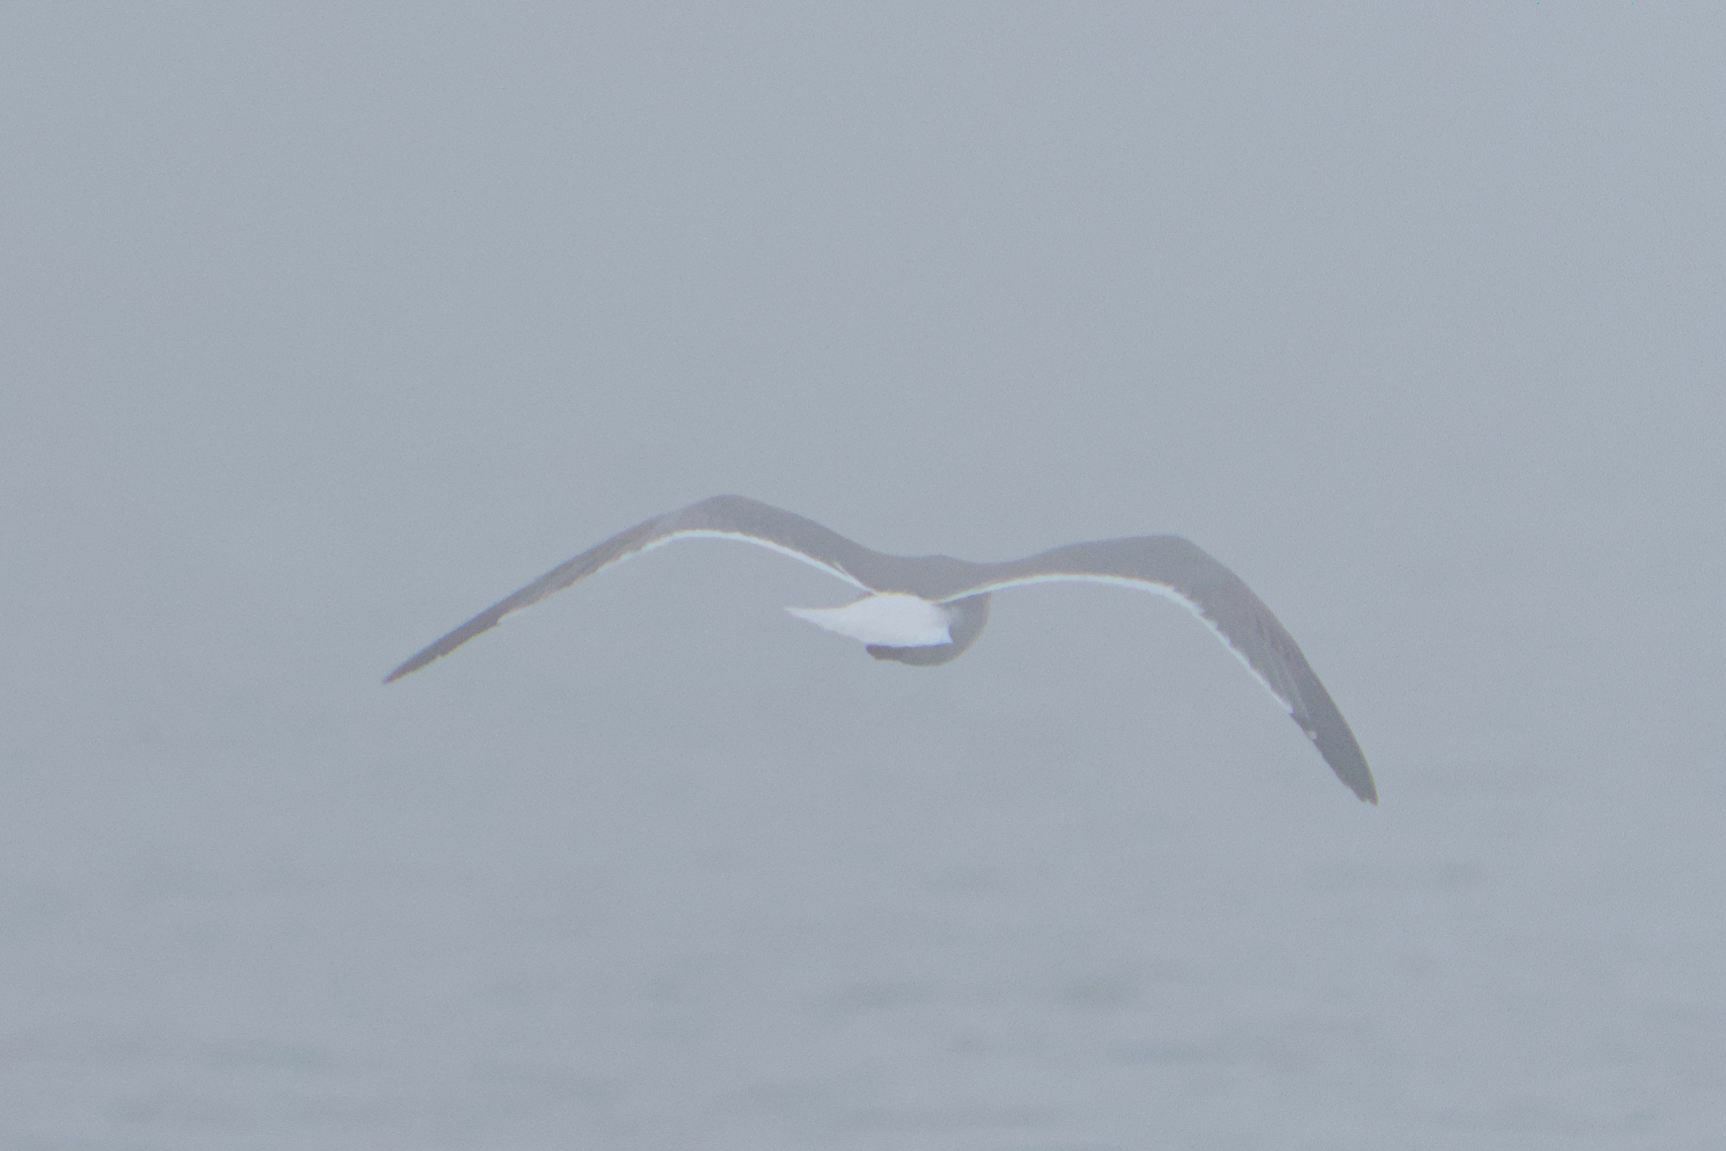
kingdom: Animalia
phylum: Chordata
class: Aves
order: Charadriiformes
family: Laridae
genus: Leucophaeus
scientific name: Leucophaeus atricilla
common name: Laughing gull
